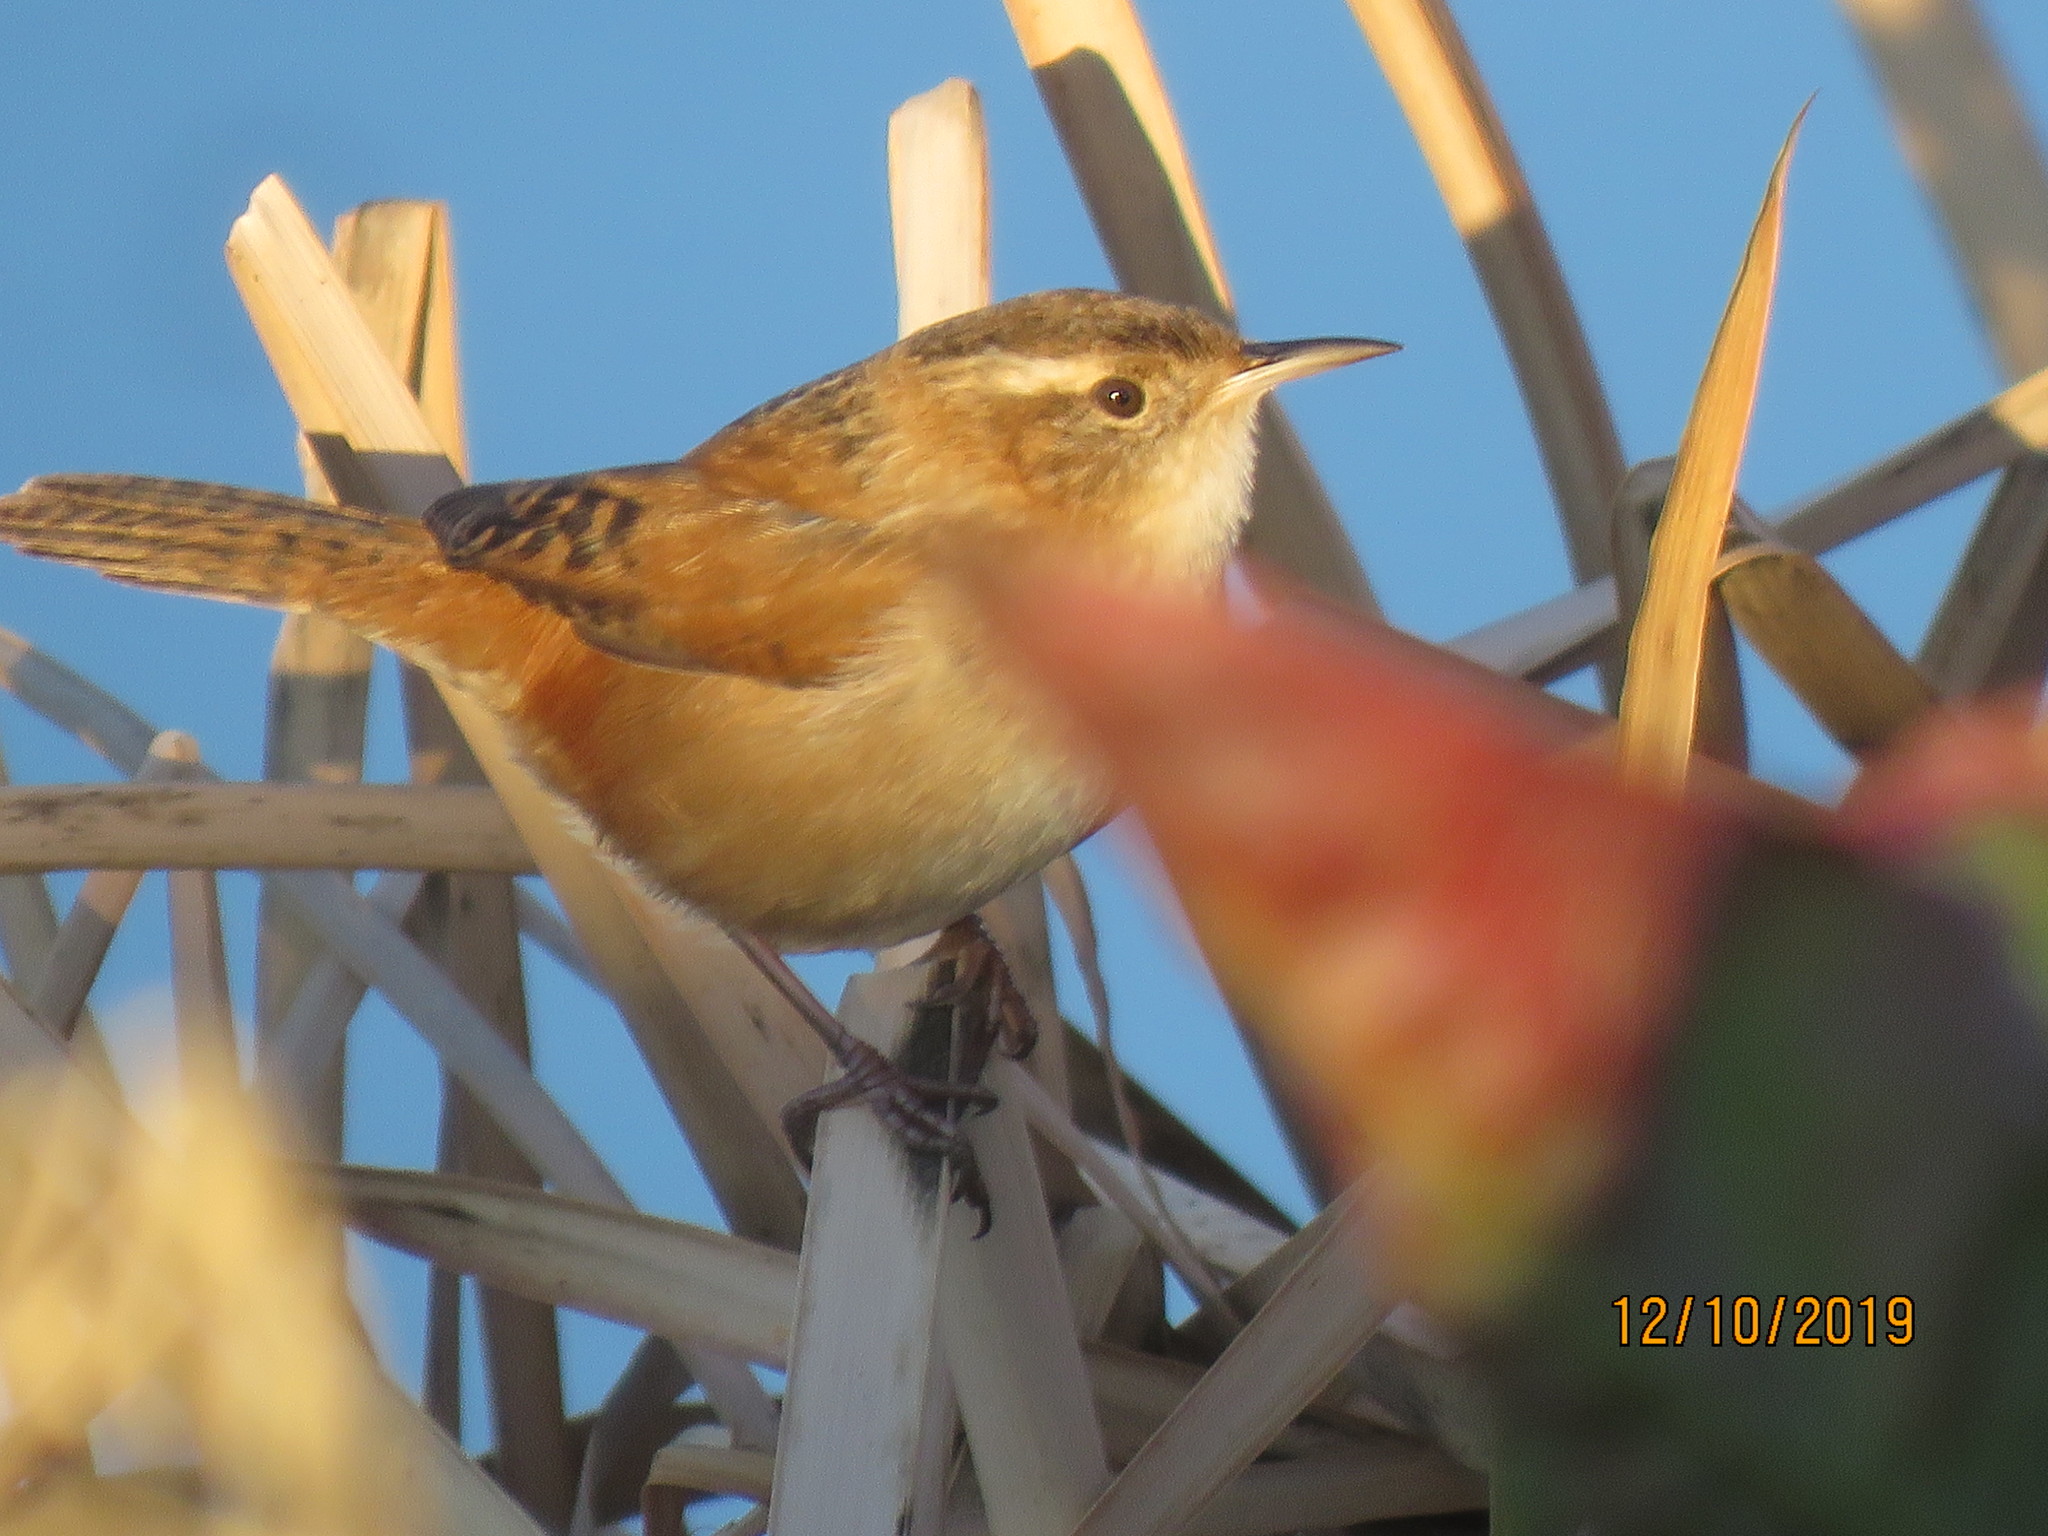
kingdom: Animalia
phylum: Chordata
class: Aves
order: Passeriformes
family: Troglodytidae
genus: Cistothorus
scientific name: Cistothorus palustris
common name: Marsh wren
